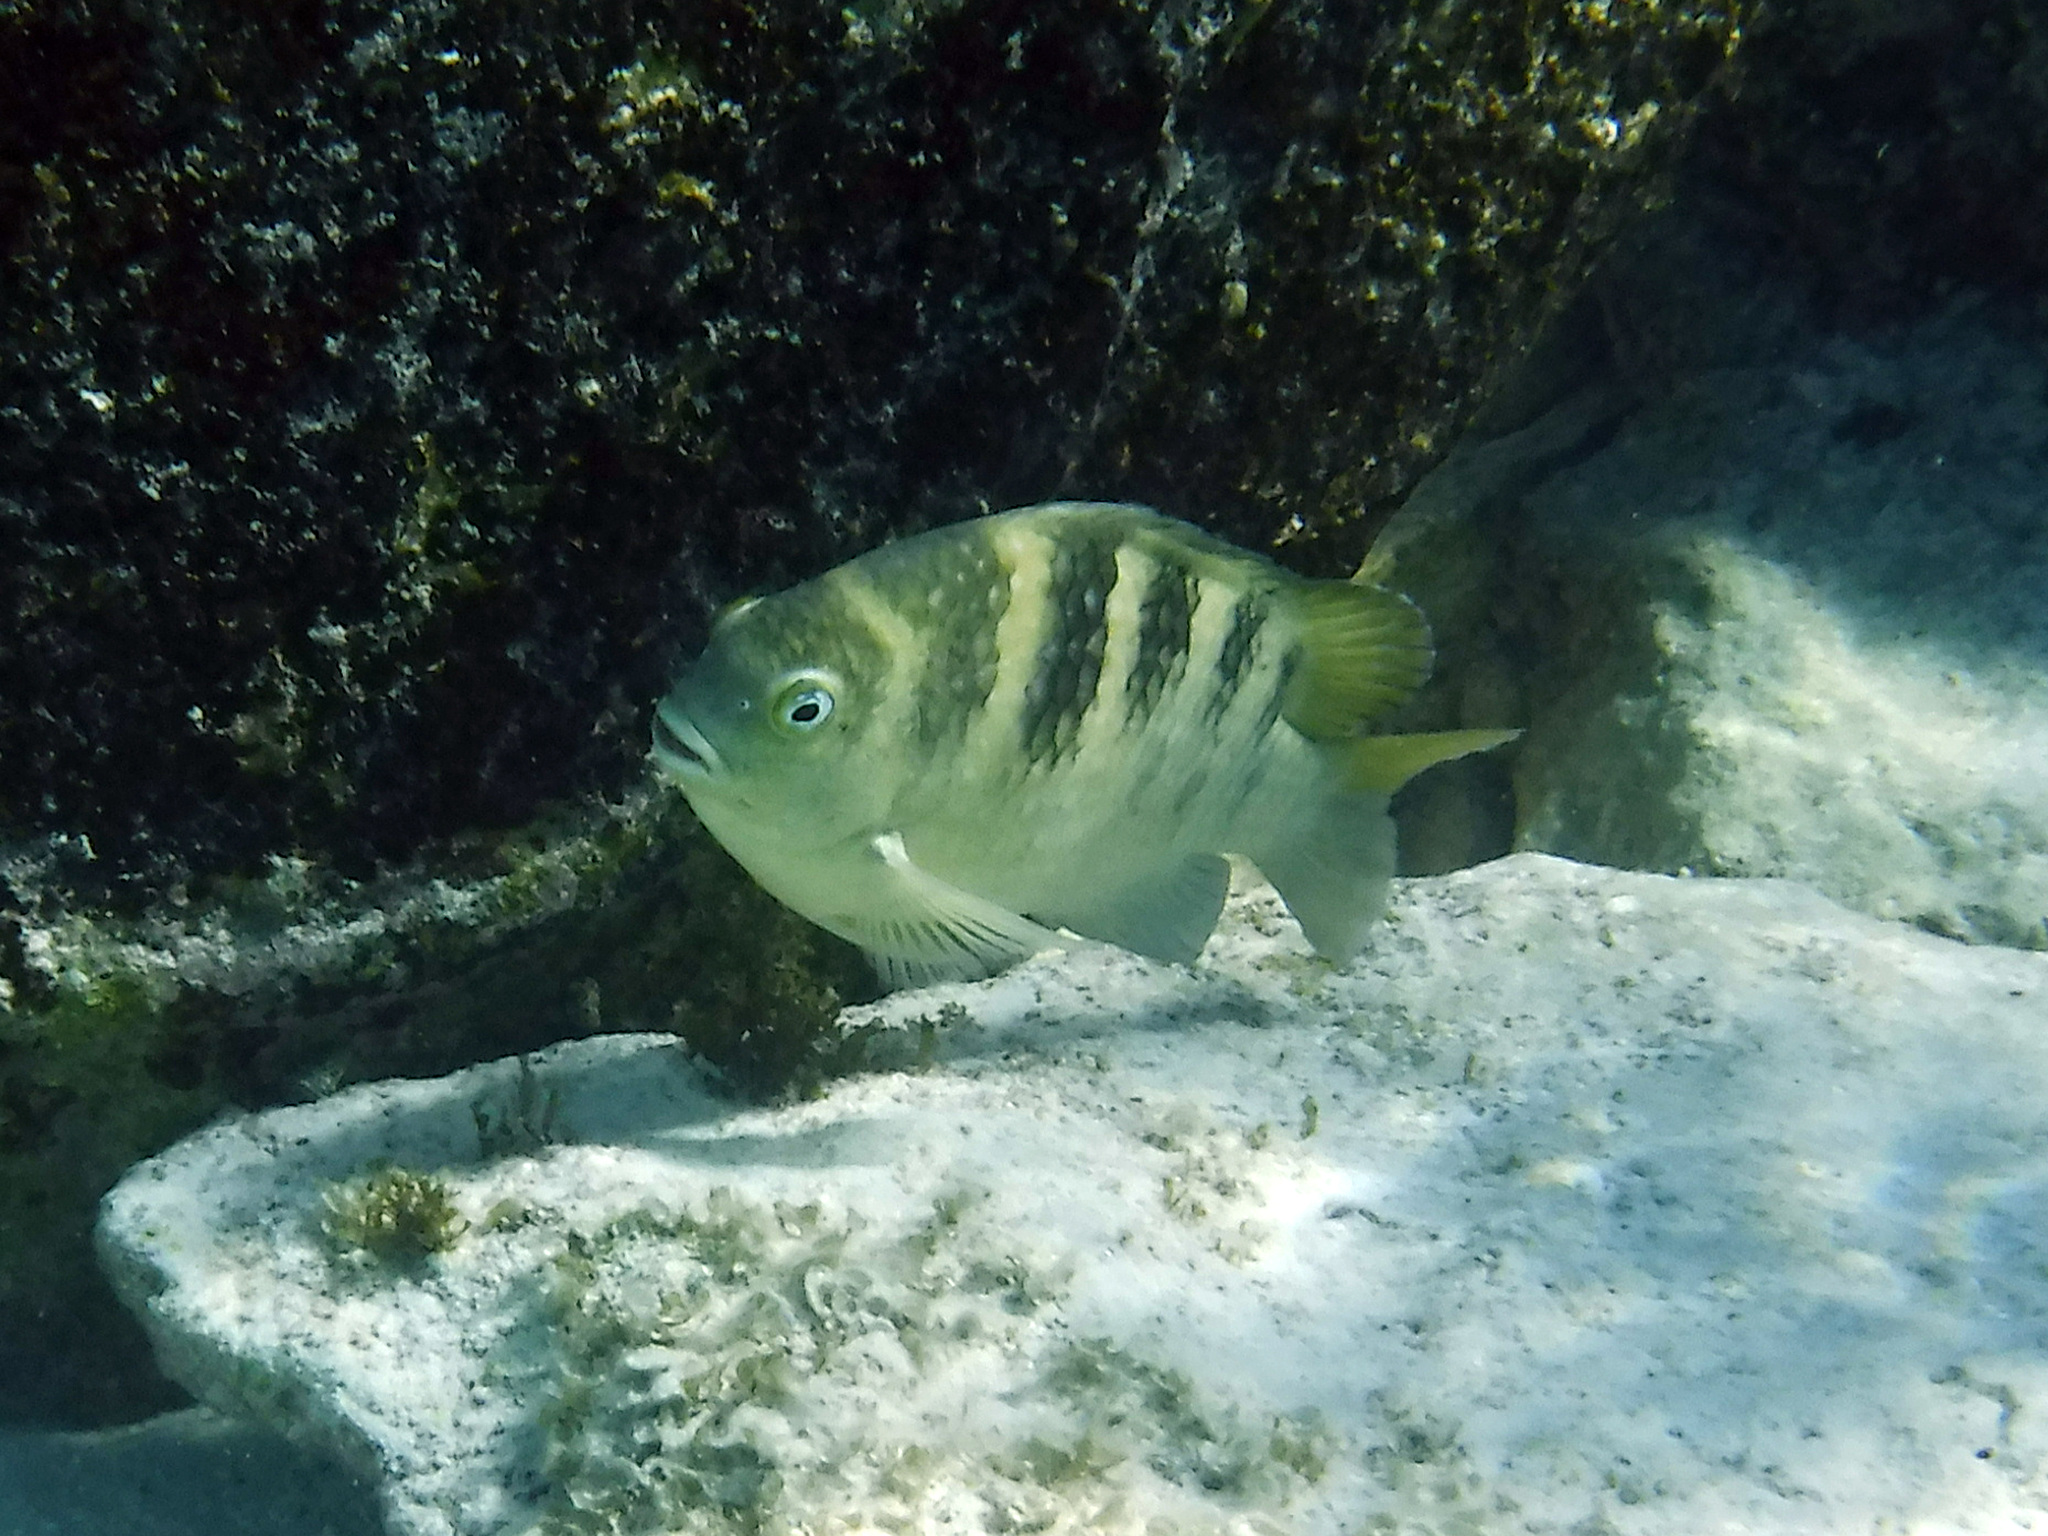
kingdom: Animalia
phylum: Chordata
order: Perciformes
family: Pomacentridae
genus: Abudefduf
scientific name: Abudefduf taurus
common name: Night sergeant
